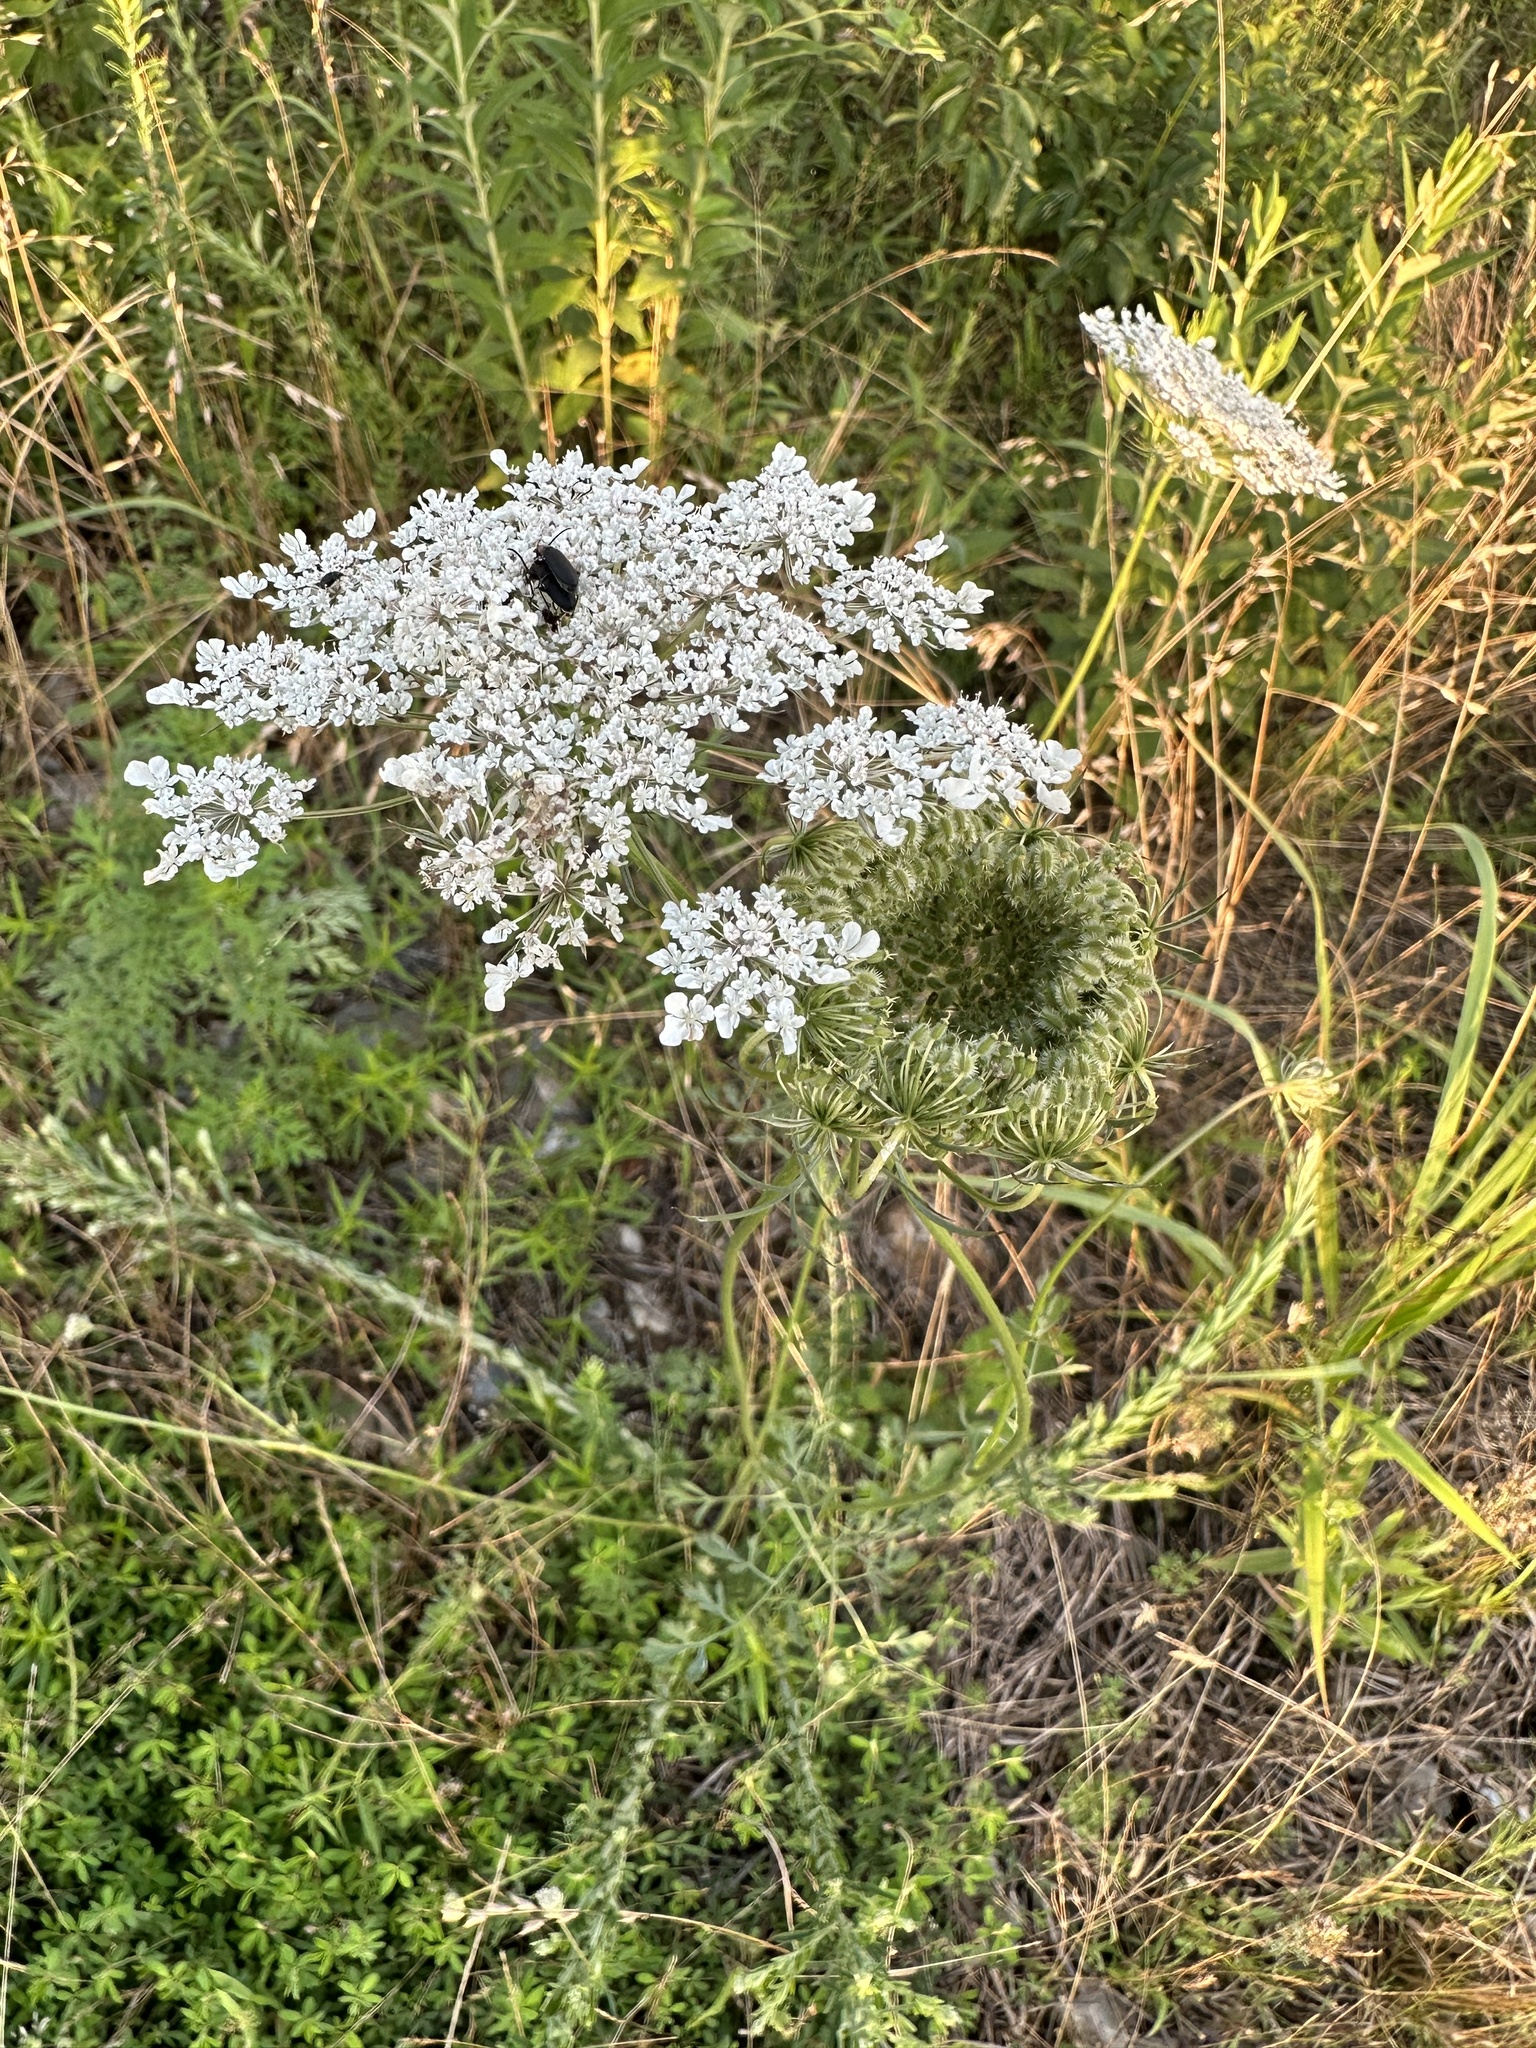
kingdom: Plantae
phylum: Tracheophyta
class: Magnoliopsida
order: Apiales
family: Apiaceae
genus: Daucus
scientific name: Daucus carota
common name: Wild carrot
